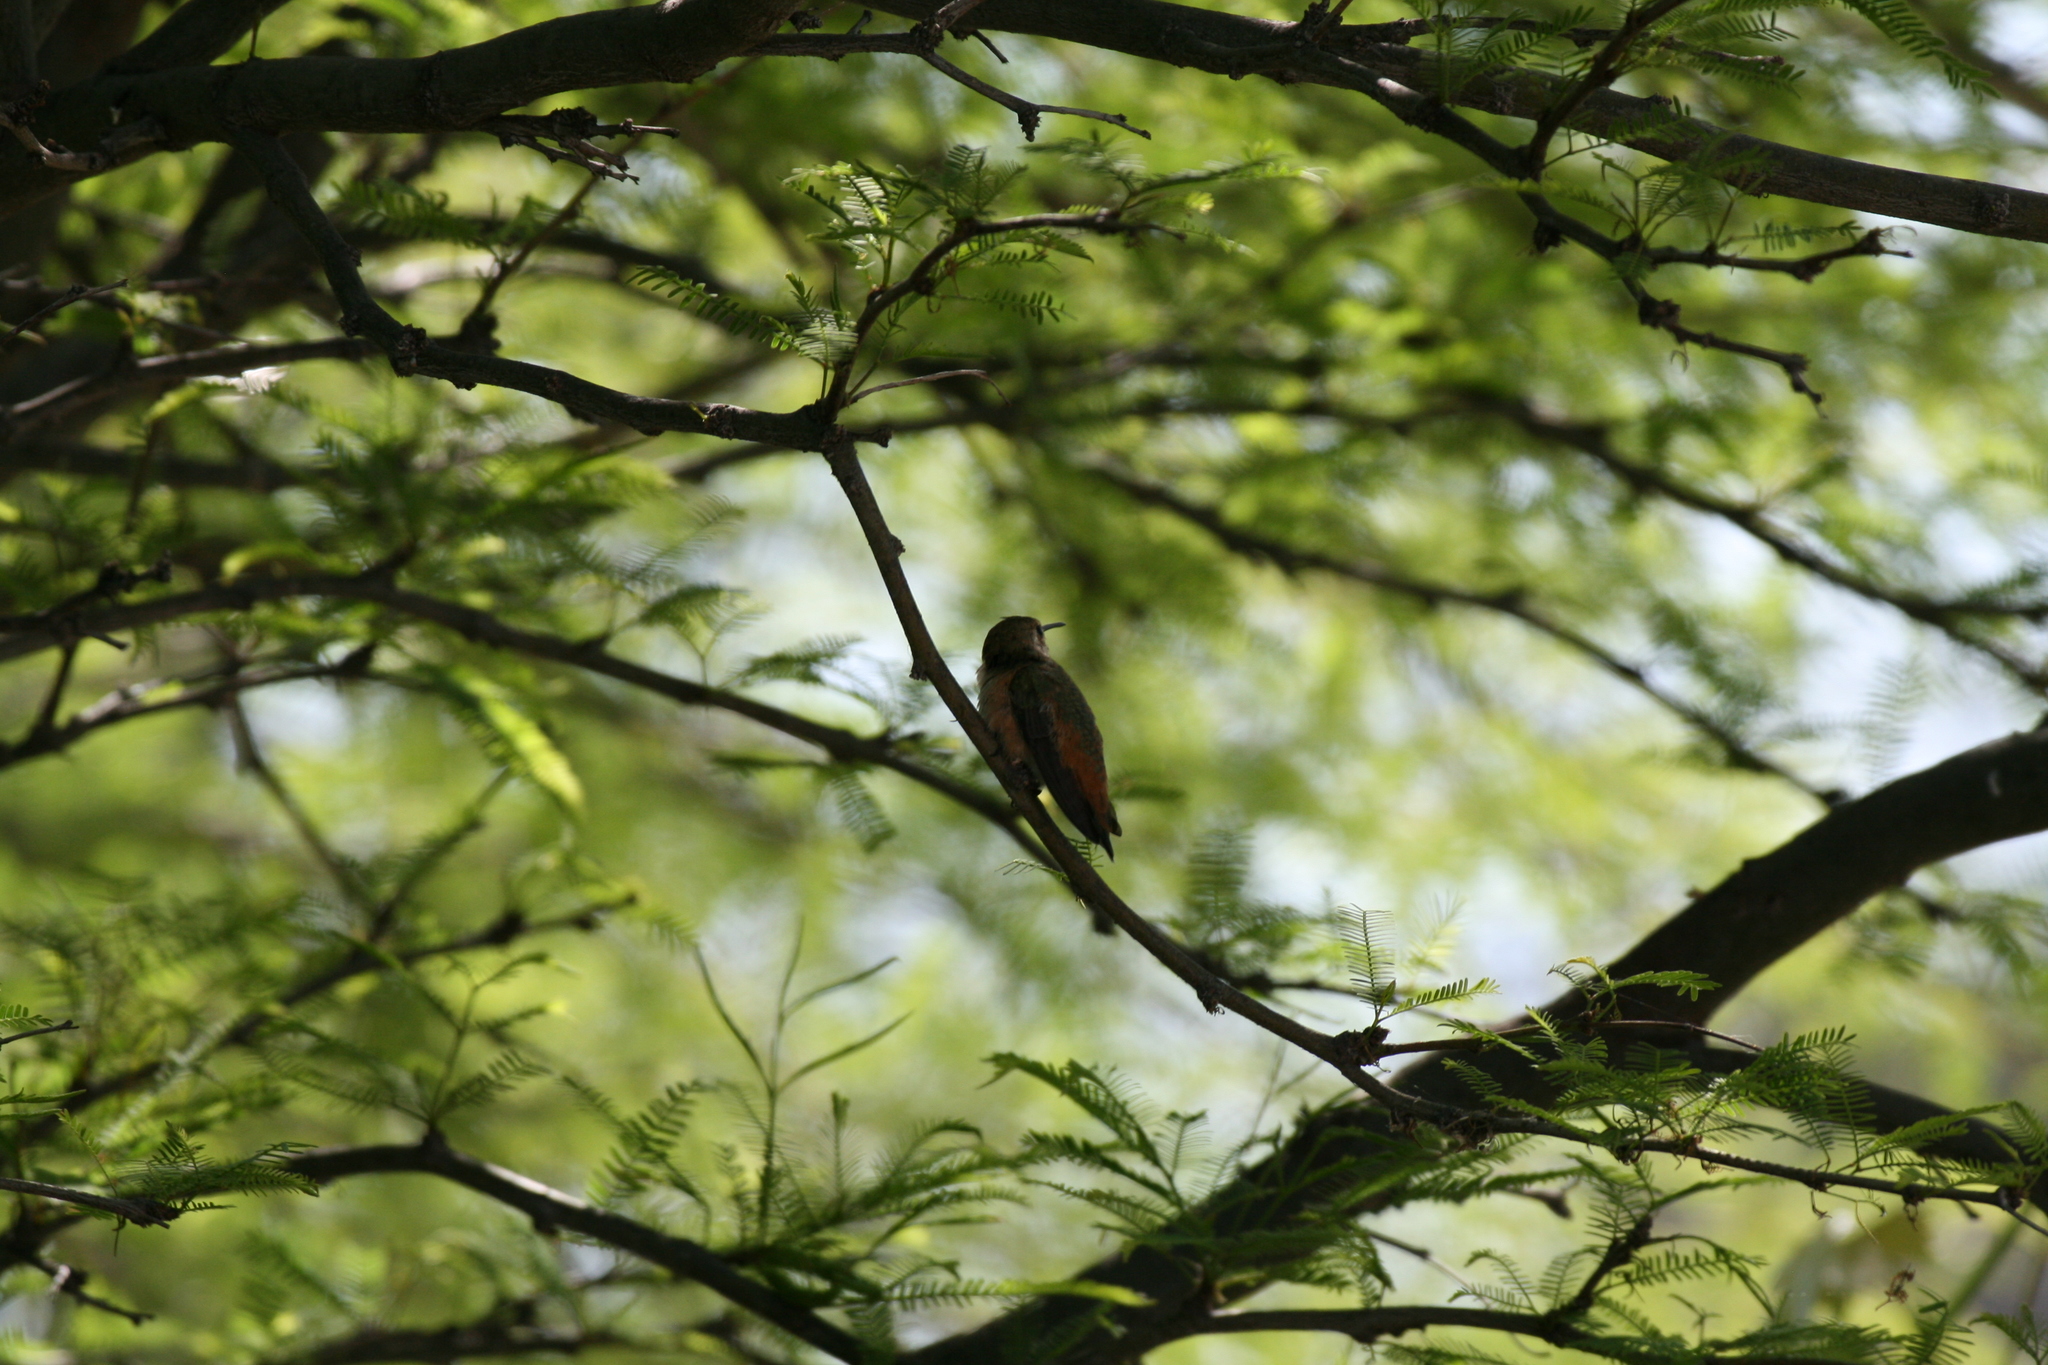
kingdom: Animalia
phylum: Chordata
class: Aves
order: Apodiformes
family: Trochilidae
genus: Selasphorus
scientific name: Selasphorus
